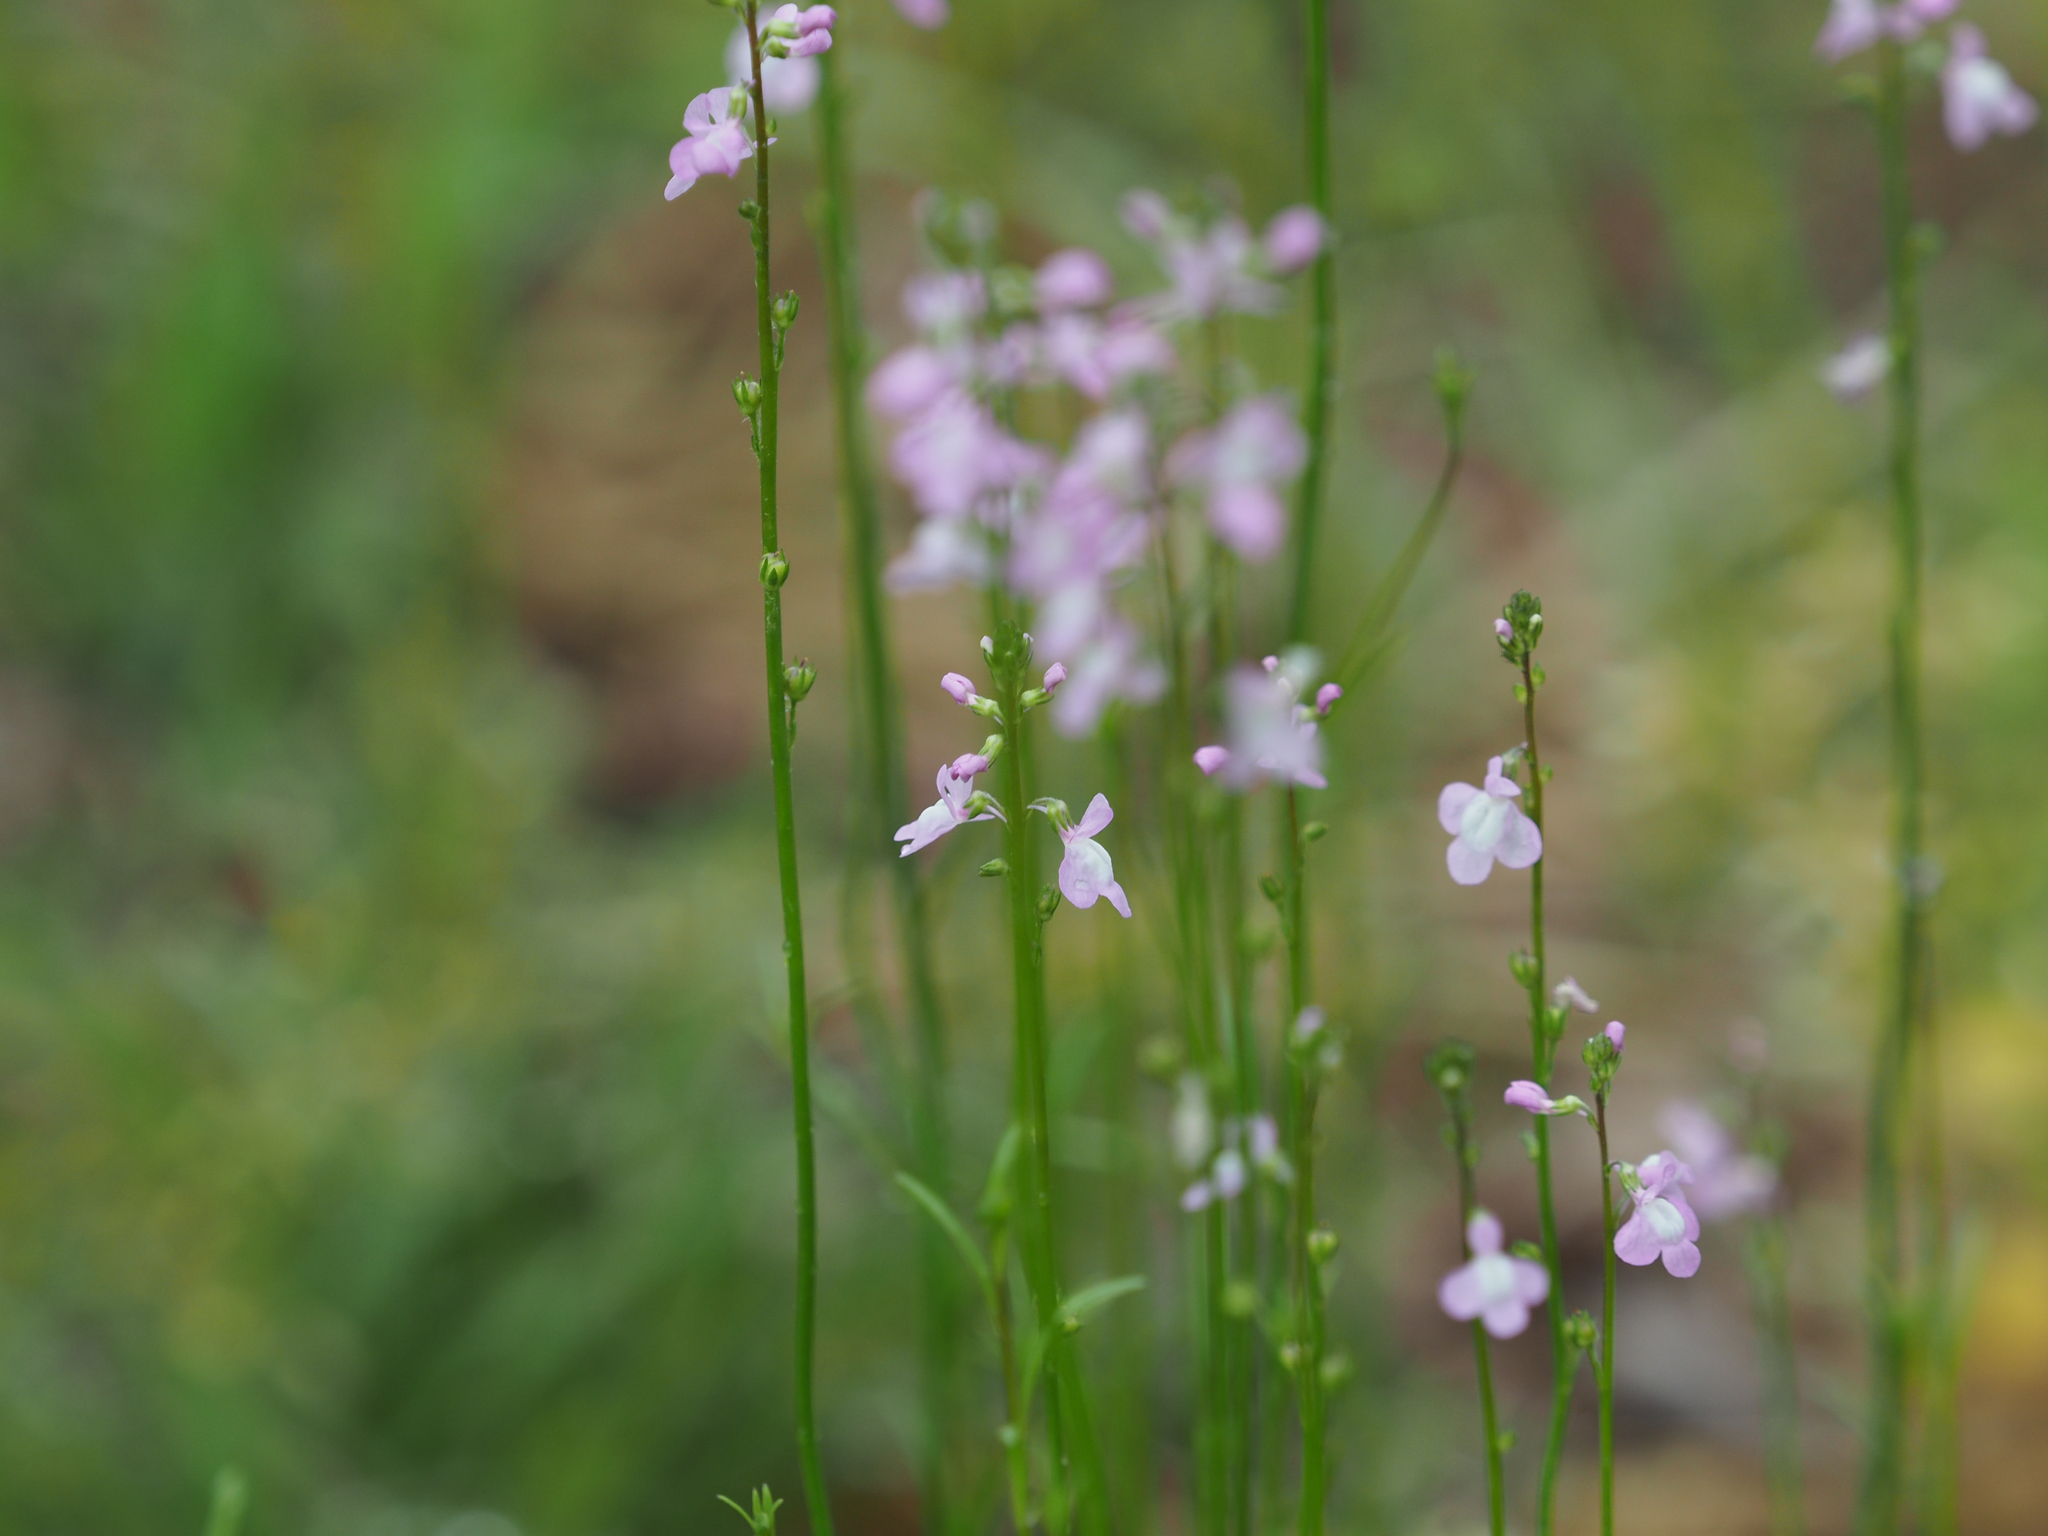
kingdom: Plantae
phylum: Tracheophyta
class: Magnoliopsida
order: Lamiales
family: Plantaginaceae
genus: Nuttallanthus
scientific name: Nuttallanthus canadensis
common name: Blue toadflax
